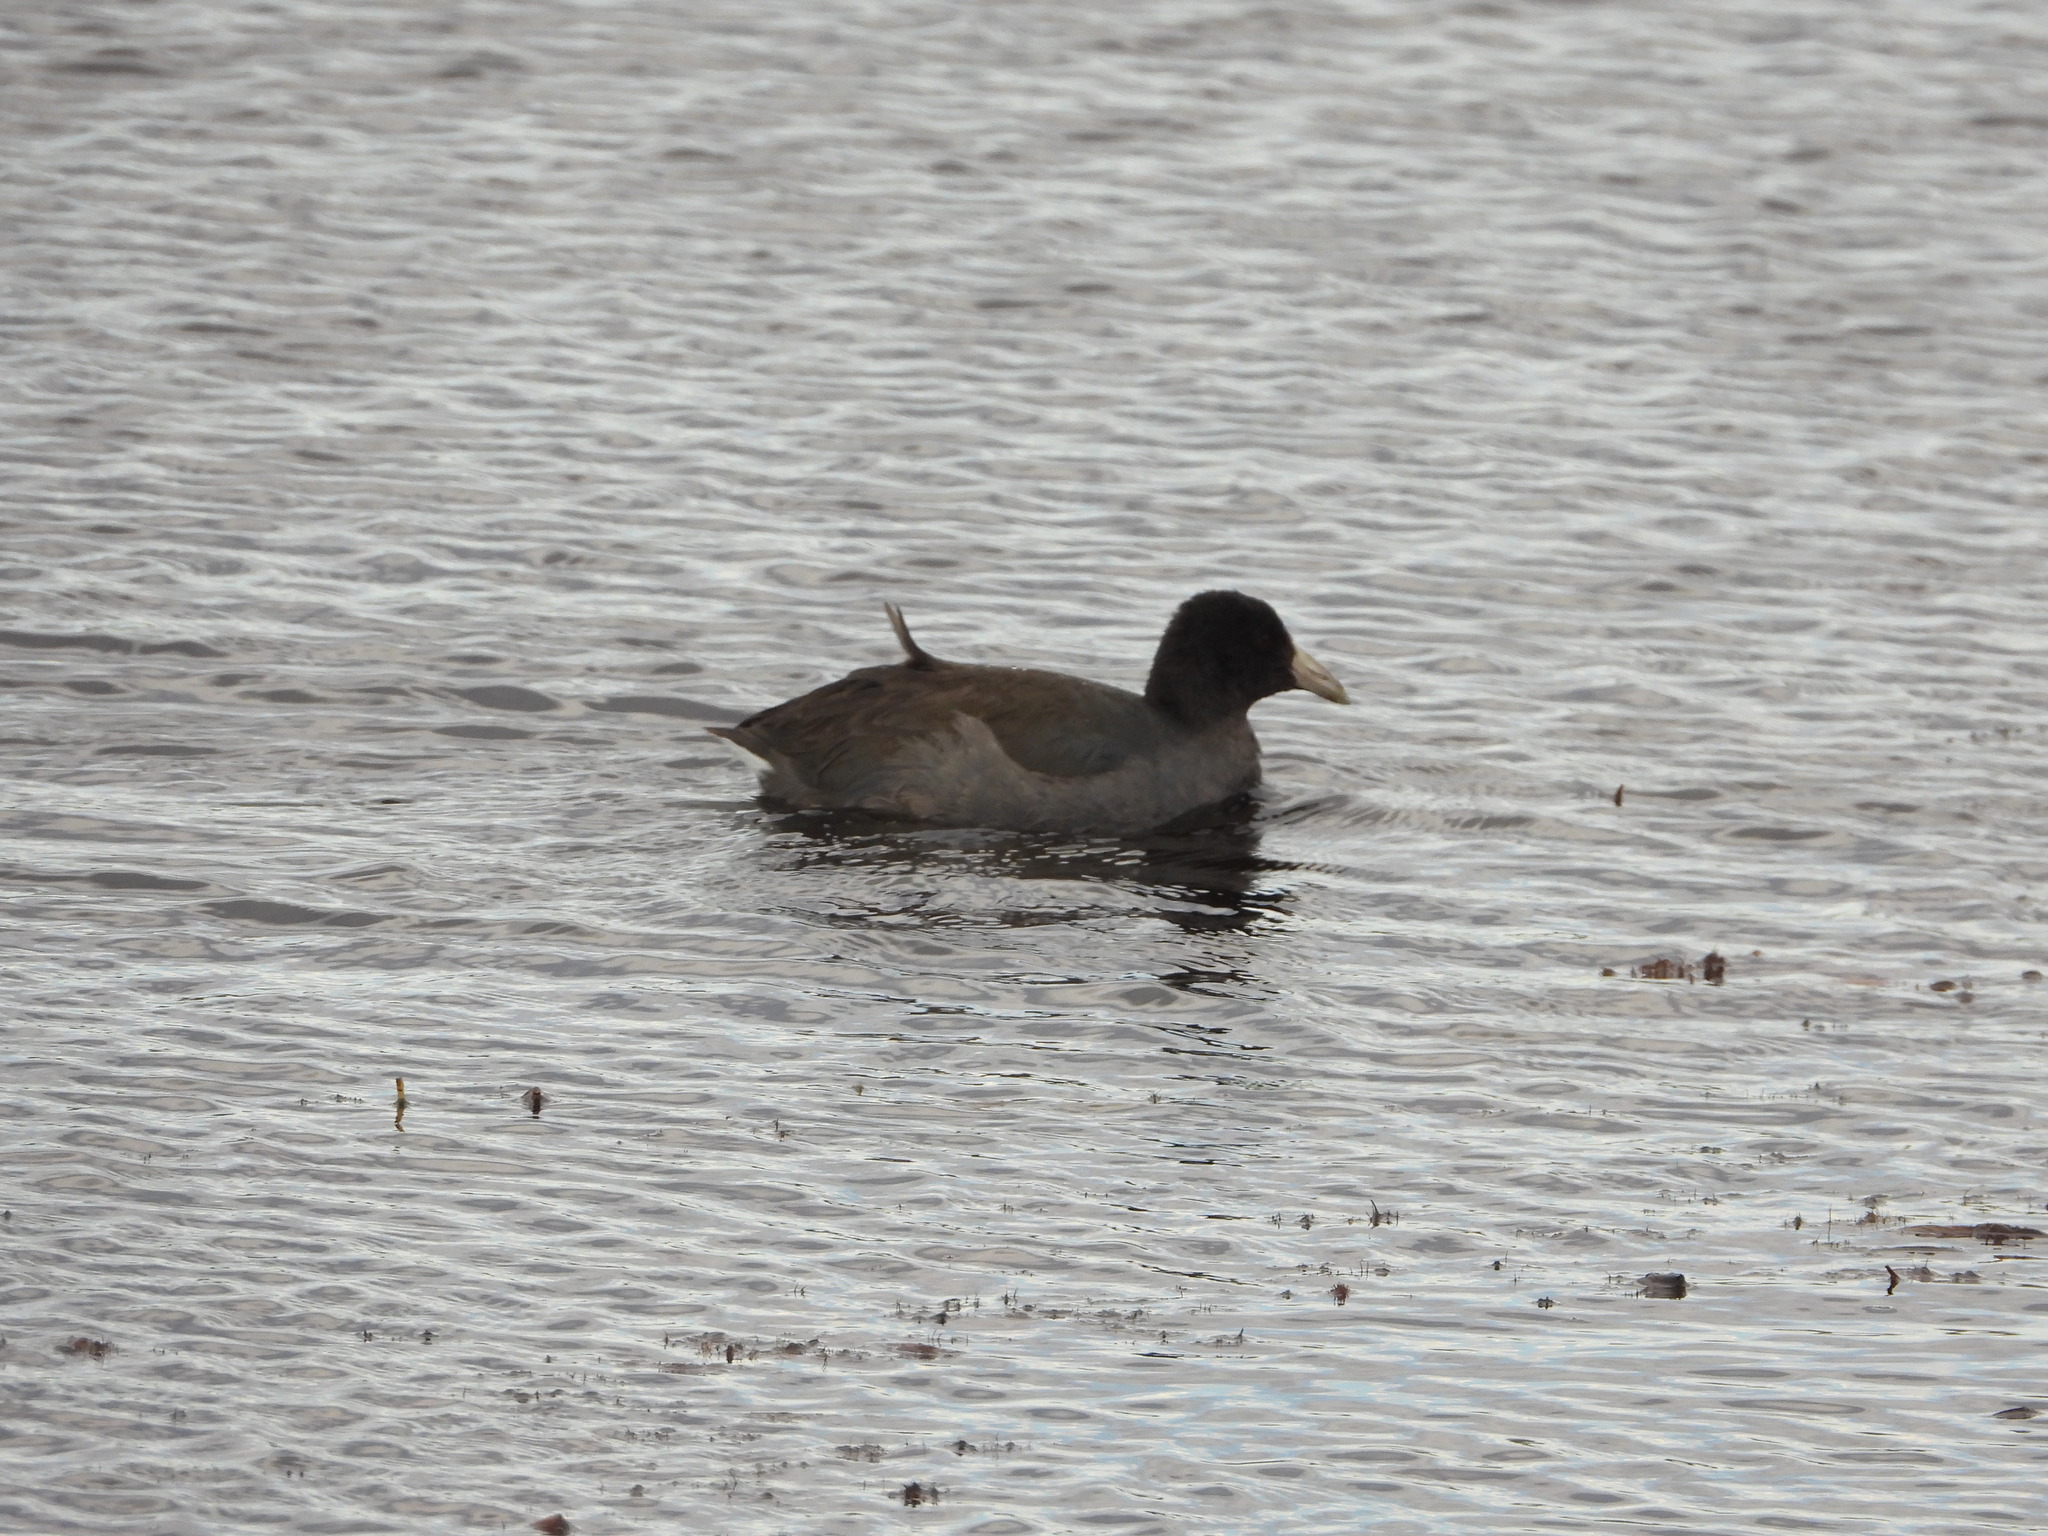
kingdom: Animalia
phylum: Chordata
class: Aves
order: Gruiformes
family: Rallidae
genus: Fulica
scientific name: Fulica americana
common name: American coot
